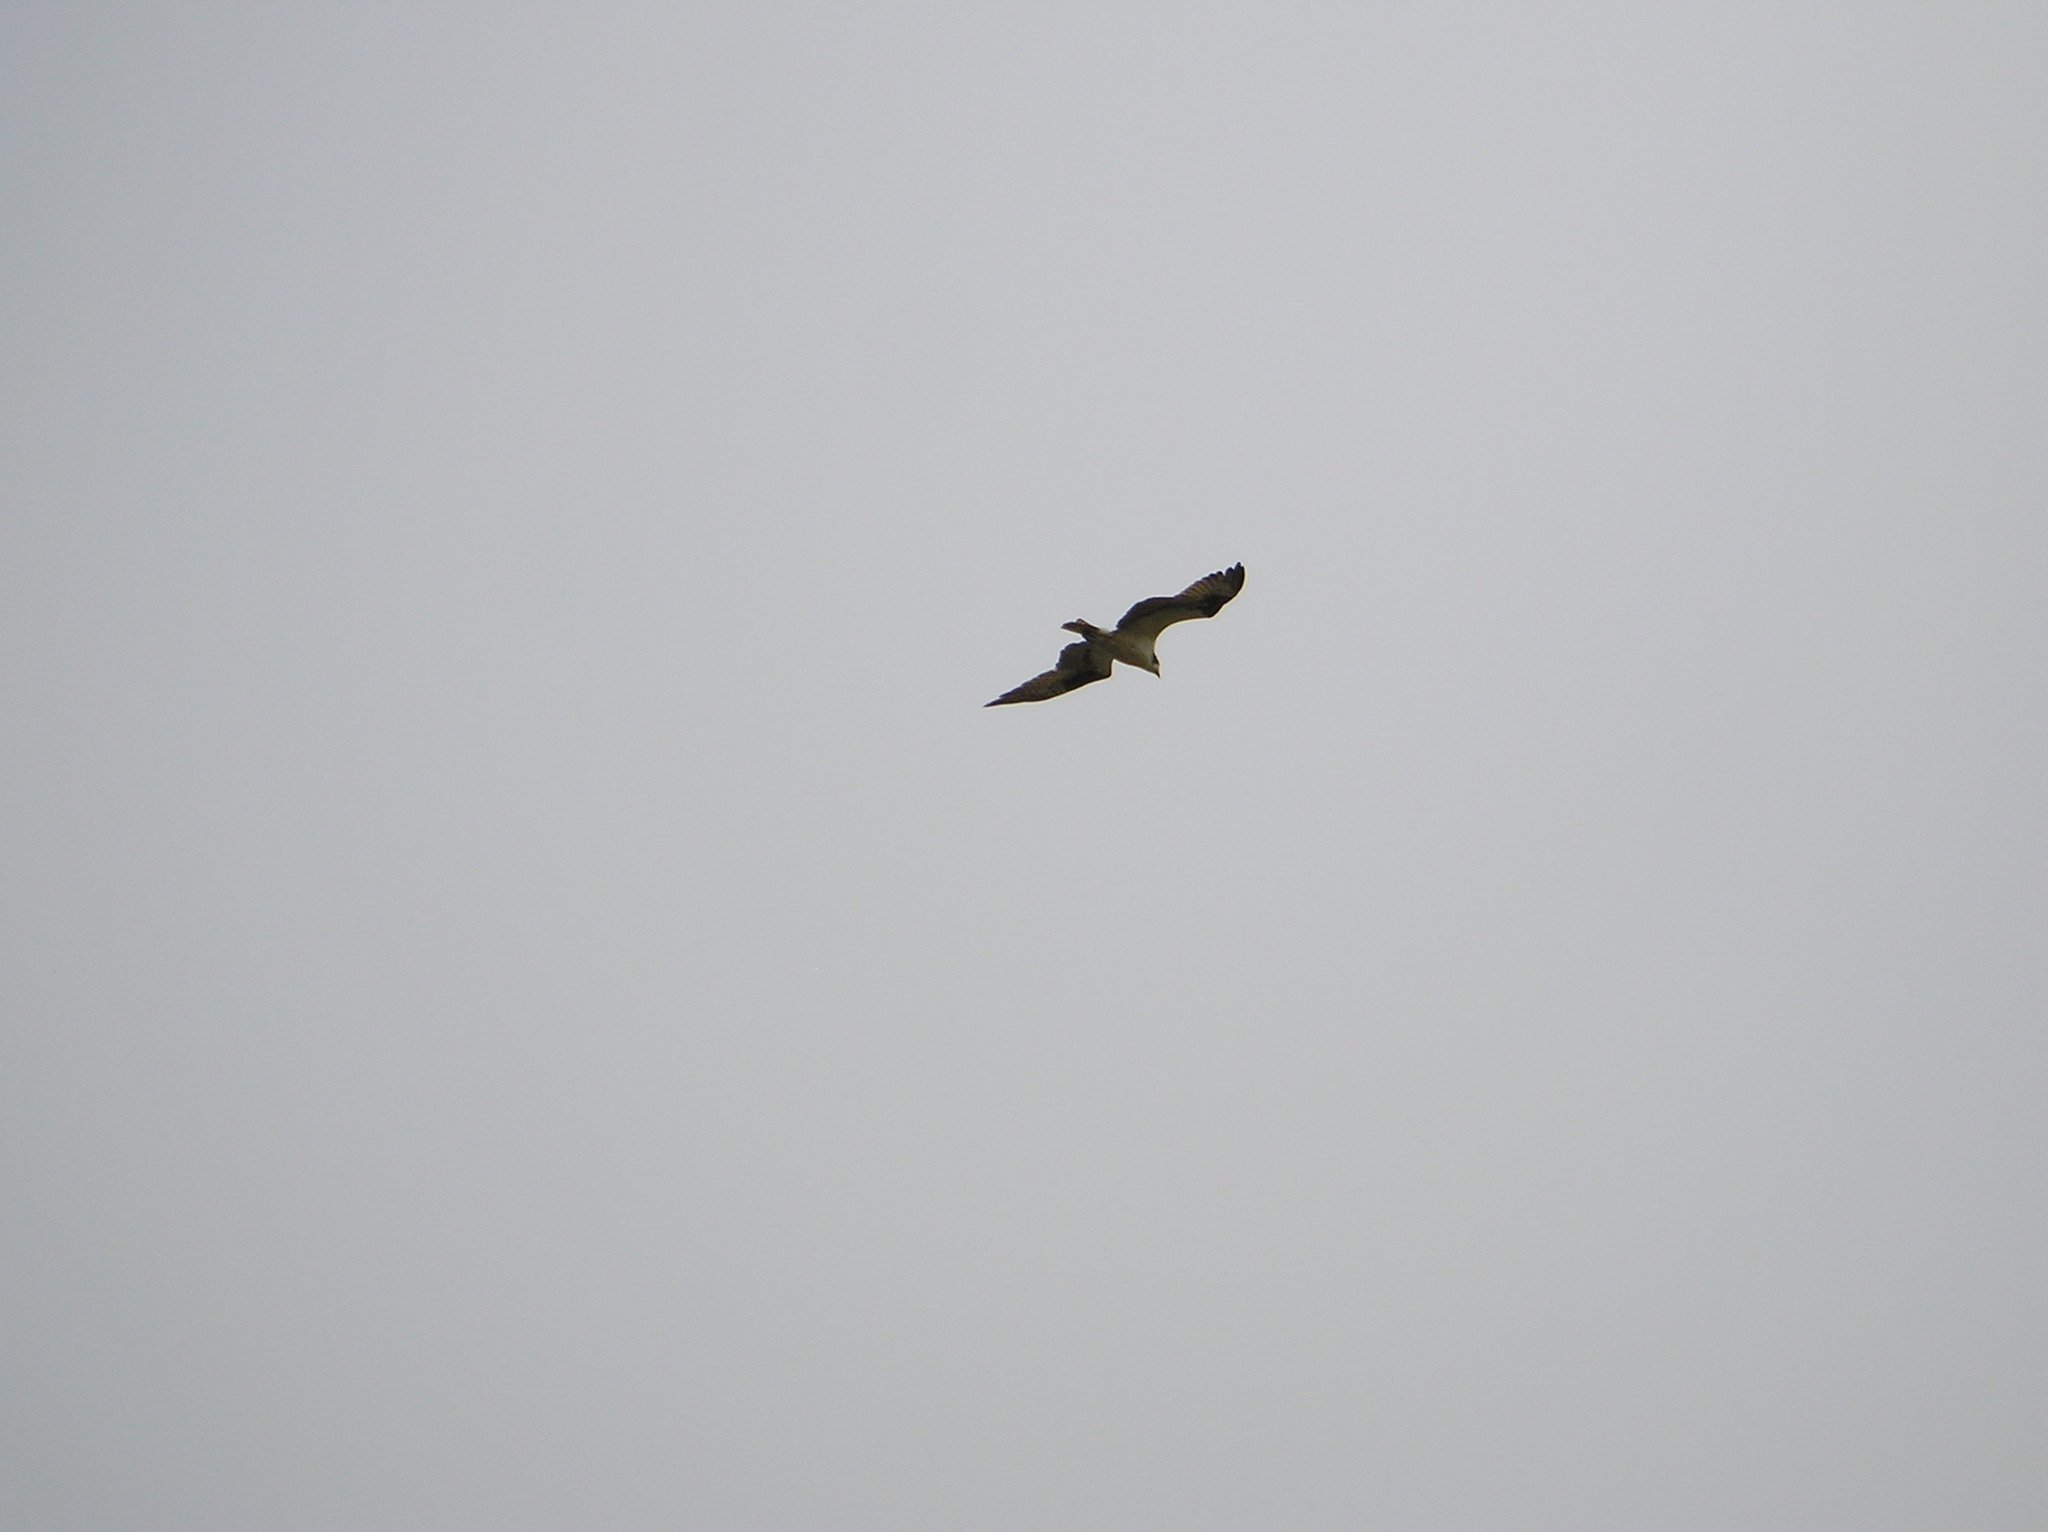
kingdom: Animalia
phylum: Chordata
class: Aves
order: Accipitriformes
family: Pandionidae
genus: Pandion
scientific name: Pandion haliaetus
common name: Osprey
